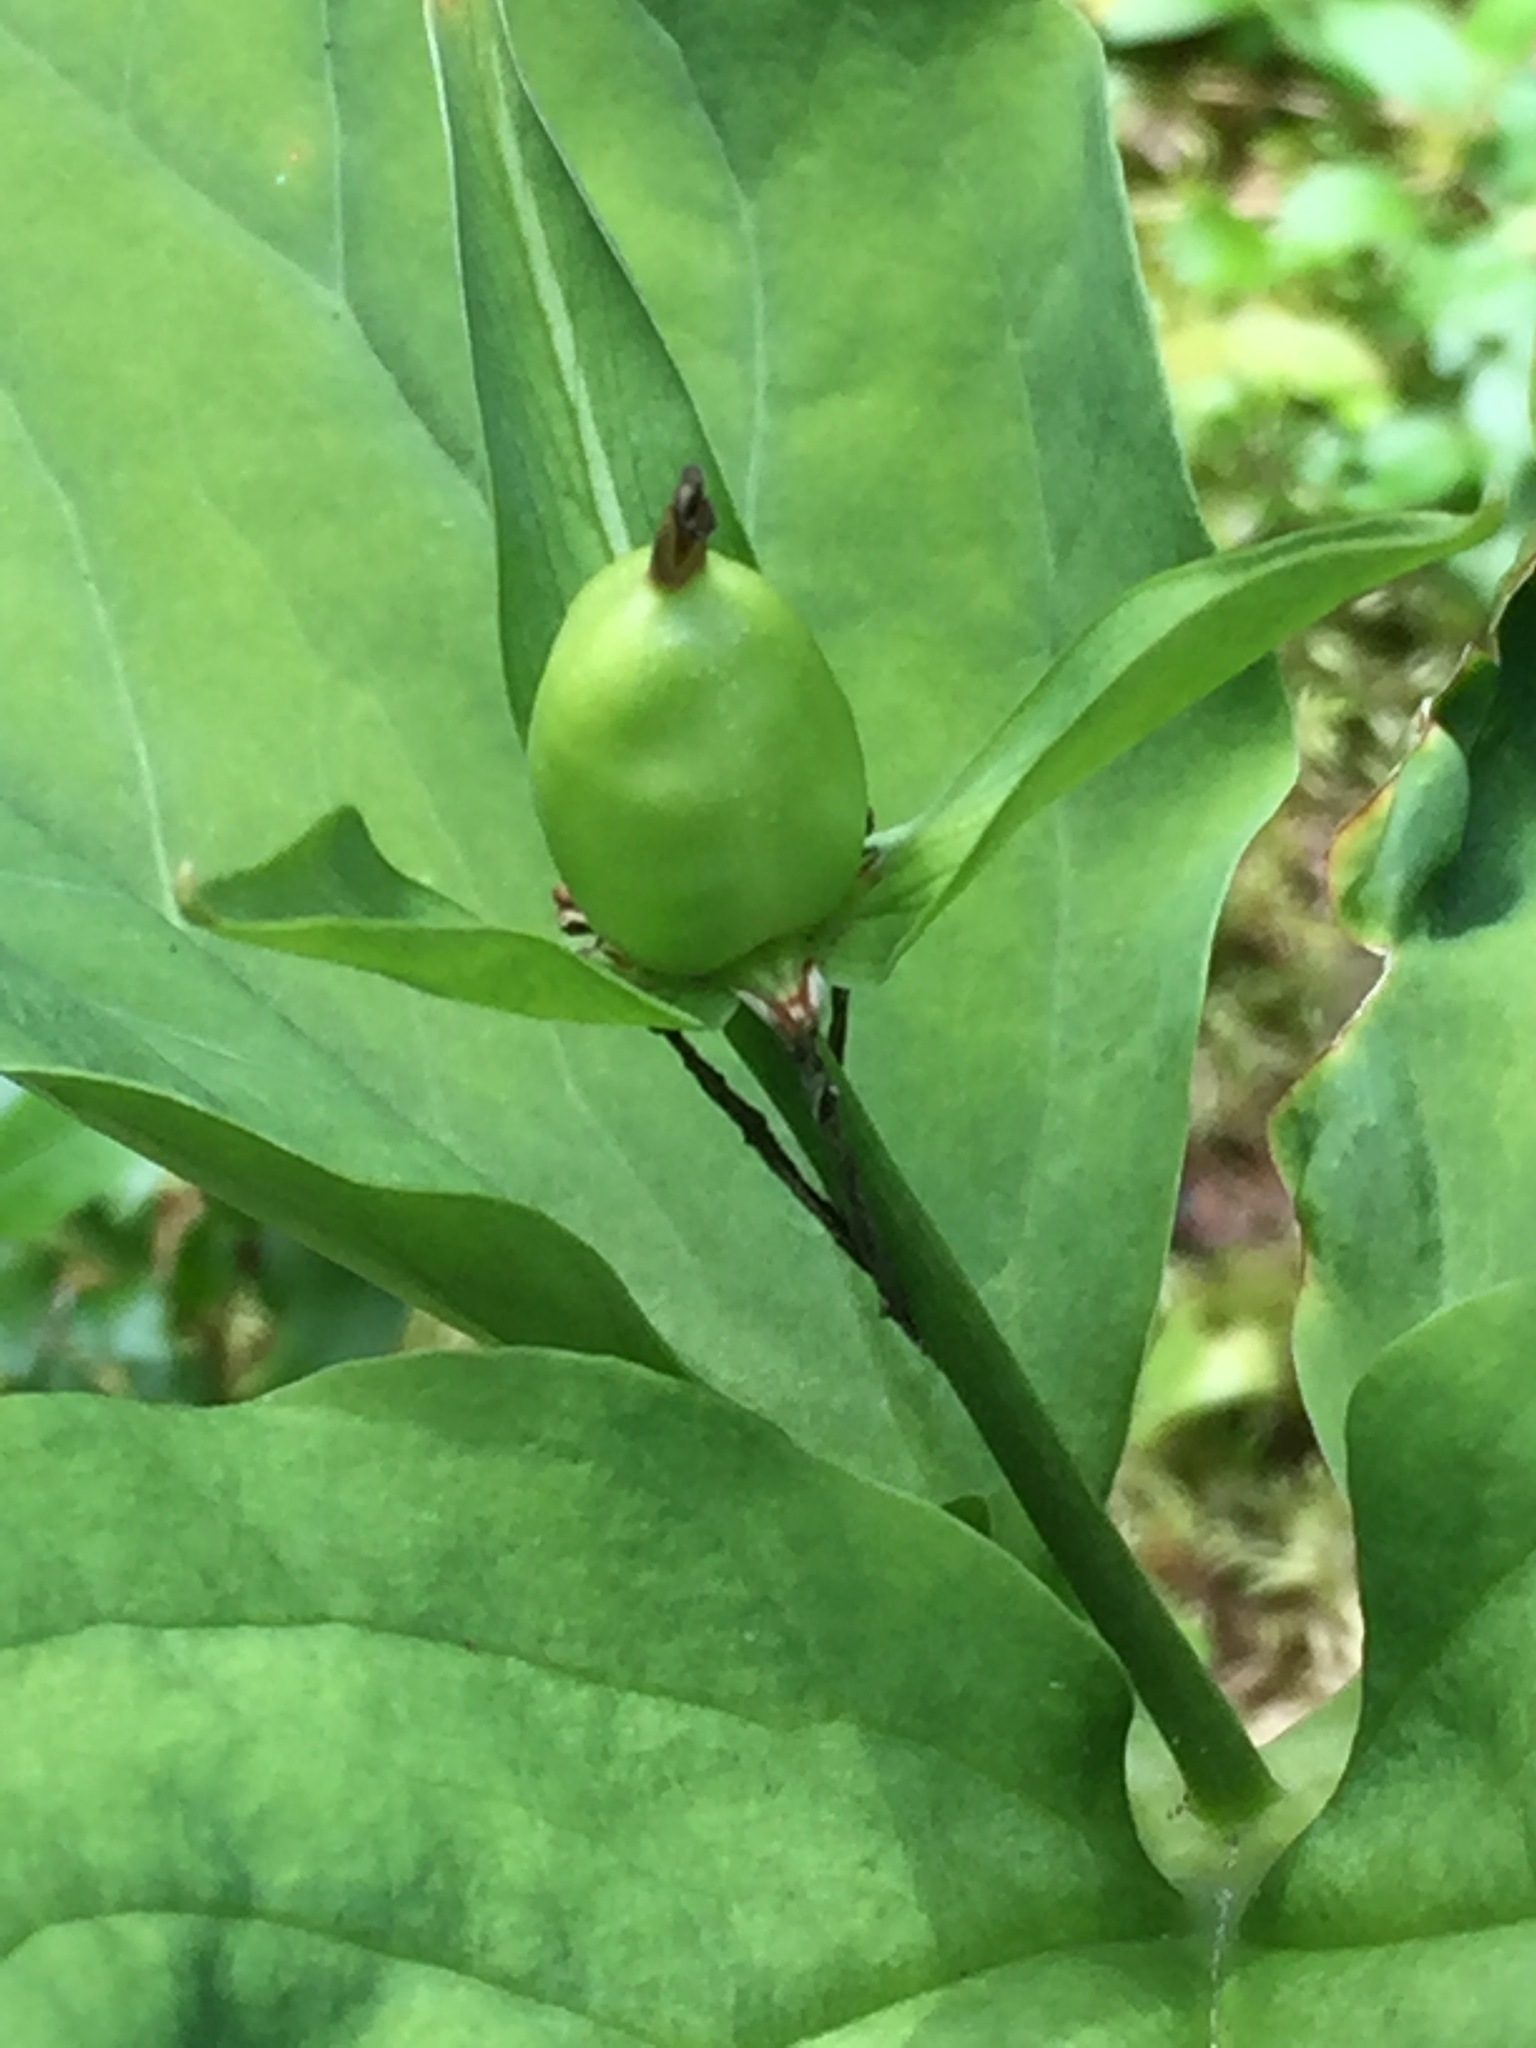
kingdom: Plantae
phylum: Tracheophyta
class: Liliopsida
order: Liliales
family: Melanthiaceae
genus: Trillium
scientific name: Trillium undulatum
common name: Paint trillium
